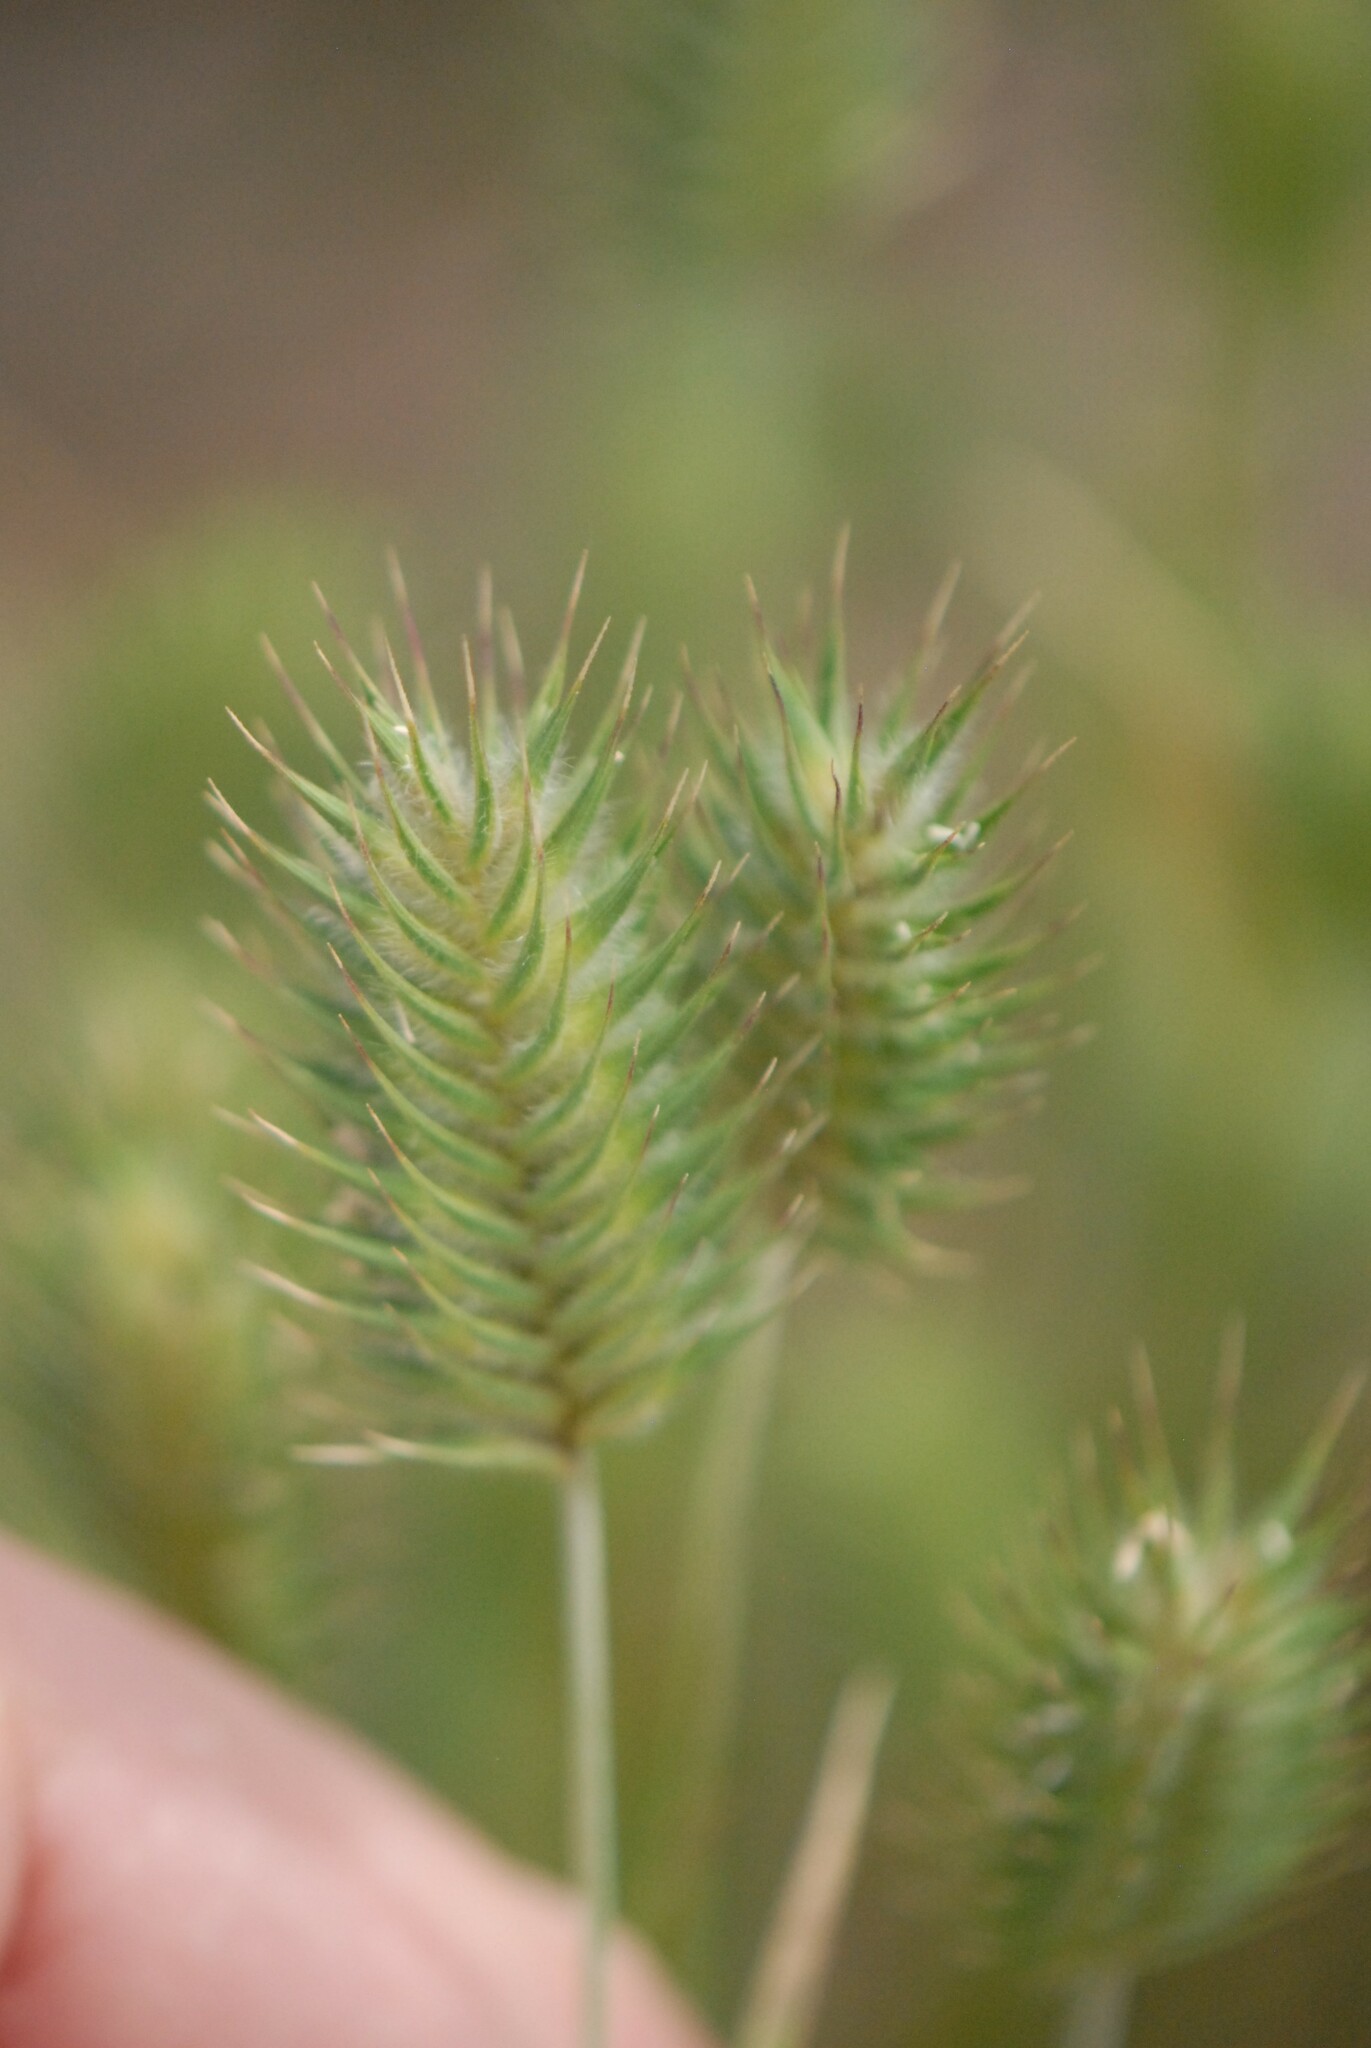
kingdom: Plantae
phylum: Tracheophyta
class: Liliopsida
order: Poales
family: Poaceae
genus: Eremopyrum
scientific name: Eremopyrum orientale
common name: Oriental false wheatgrass
